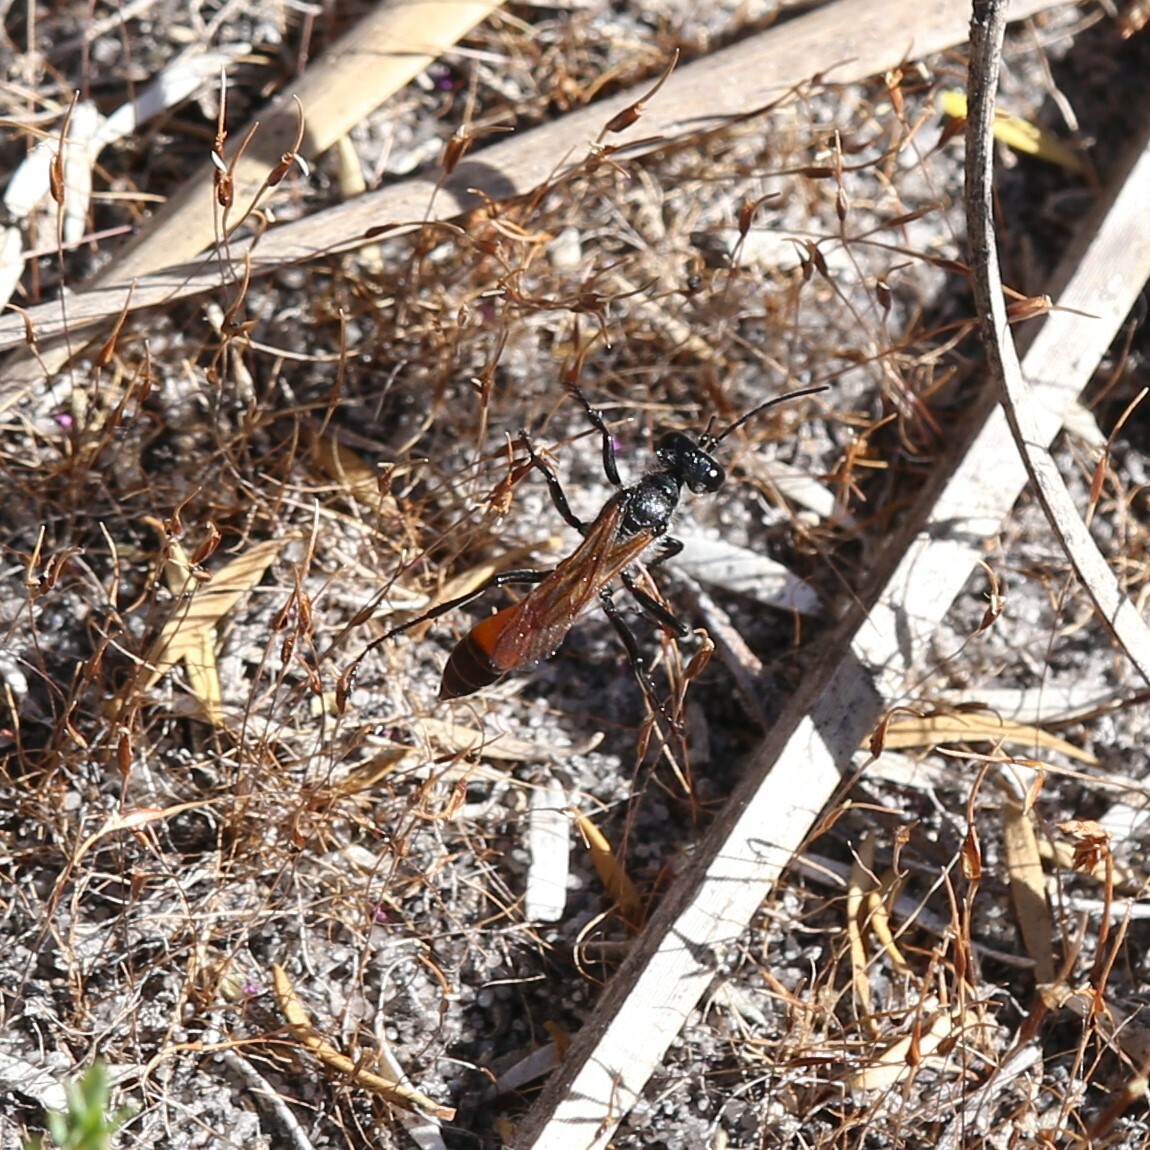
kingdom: Animalia
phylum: Arthropoda
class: Insecta
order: Hymenoptera
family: Sphecidae
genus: Podalonia
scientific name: Podalonia tydei
